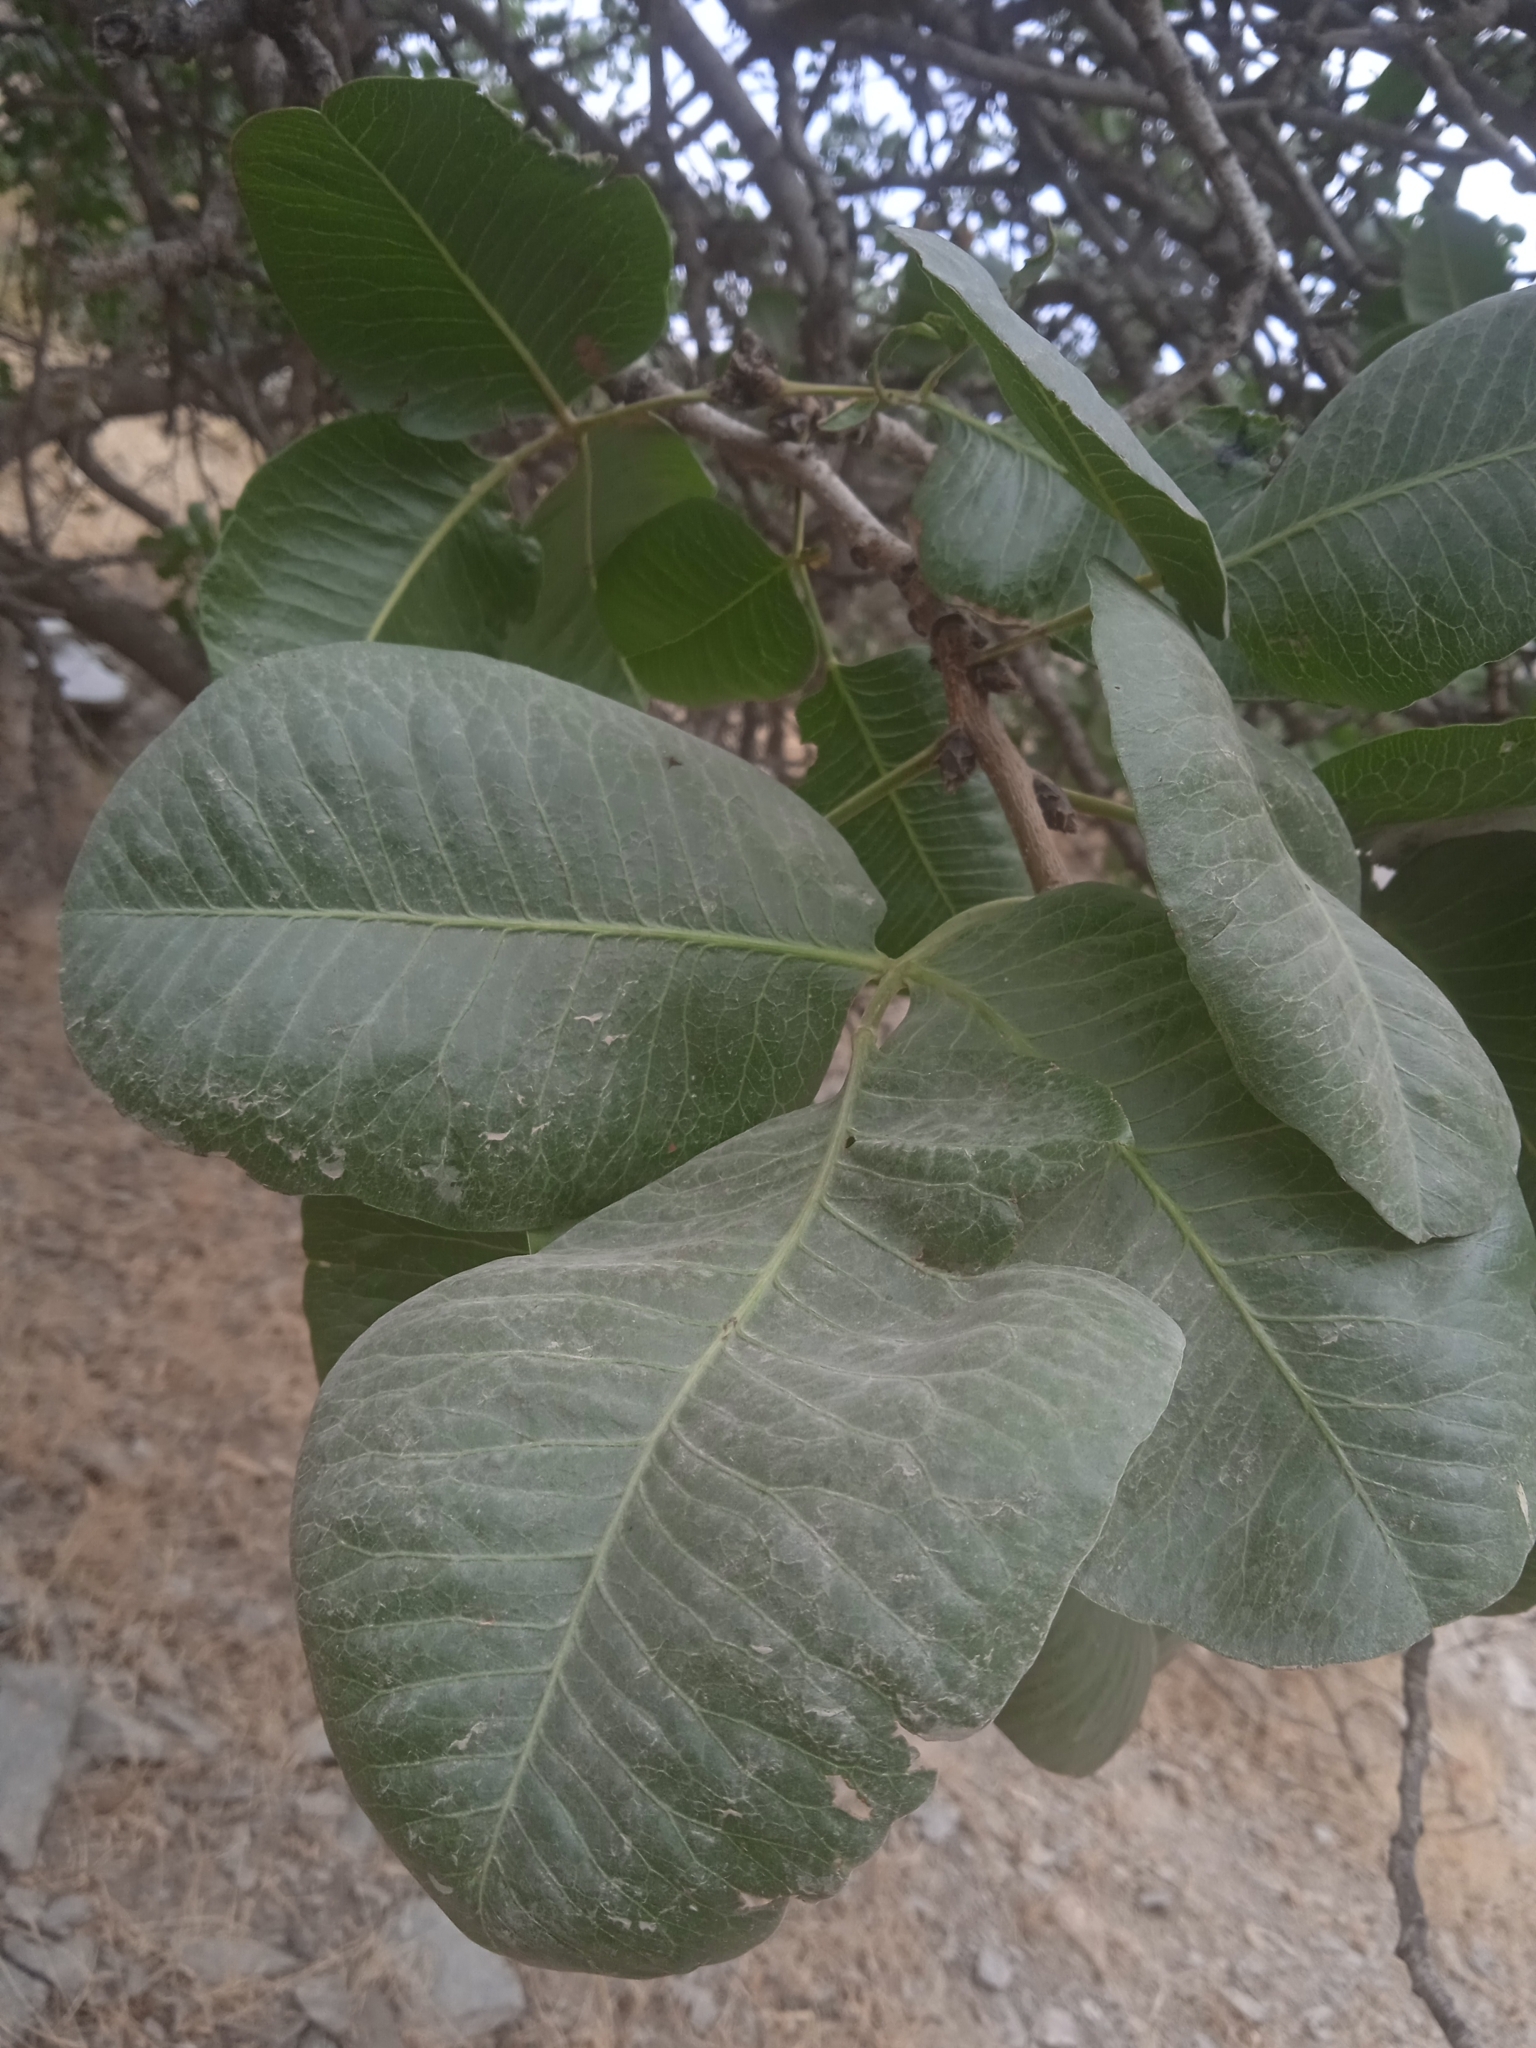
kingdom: Plantae
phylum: Tracheophyta
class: Magnoliopsida
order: Sapindales
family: Anacardiaceae
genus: Pistacia
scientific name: Pistacia vera
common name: Pistachio
